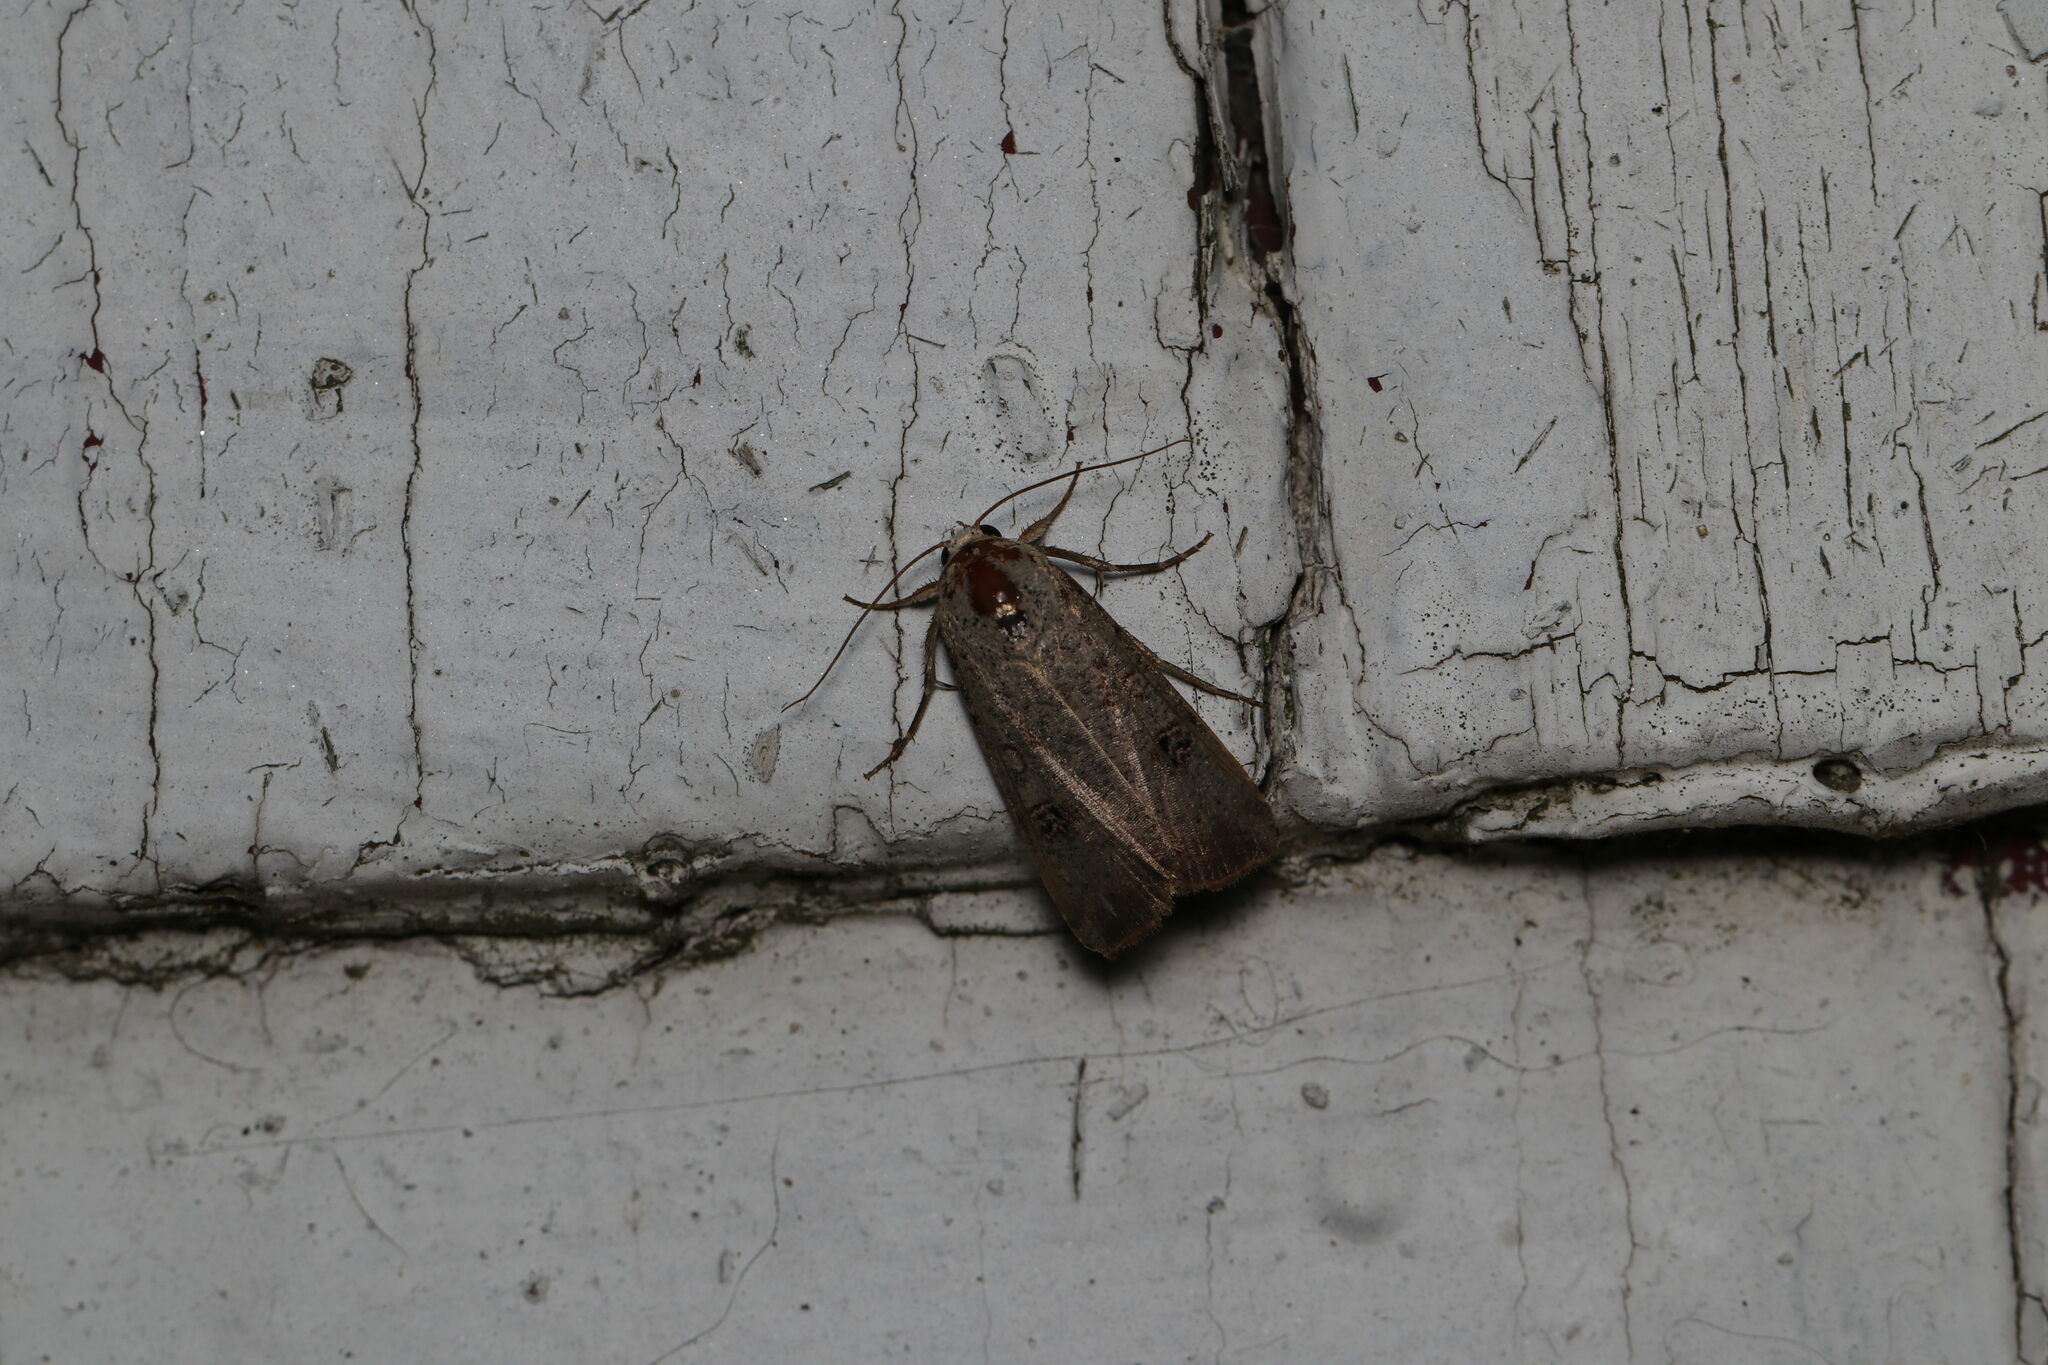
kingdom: Animalia
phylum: Arthropoda
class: Insecta
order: Lepidoptera
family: Noctuidae
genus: Anicla
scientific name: Anicla infecta
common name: Green cutworm
